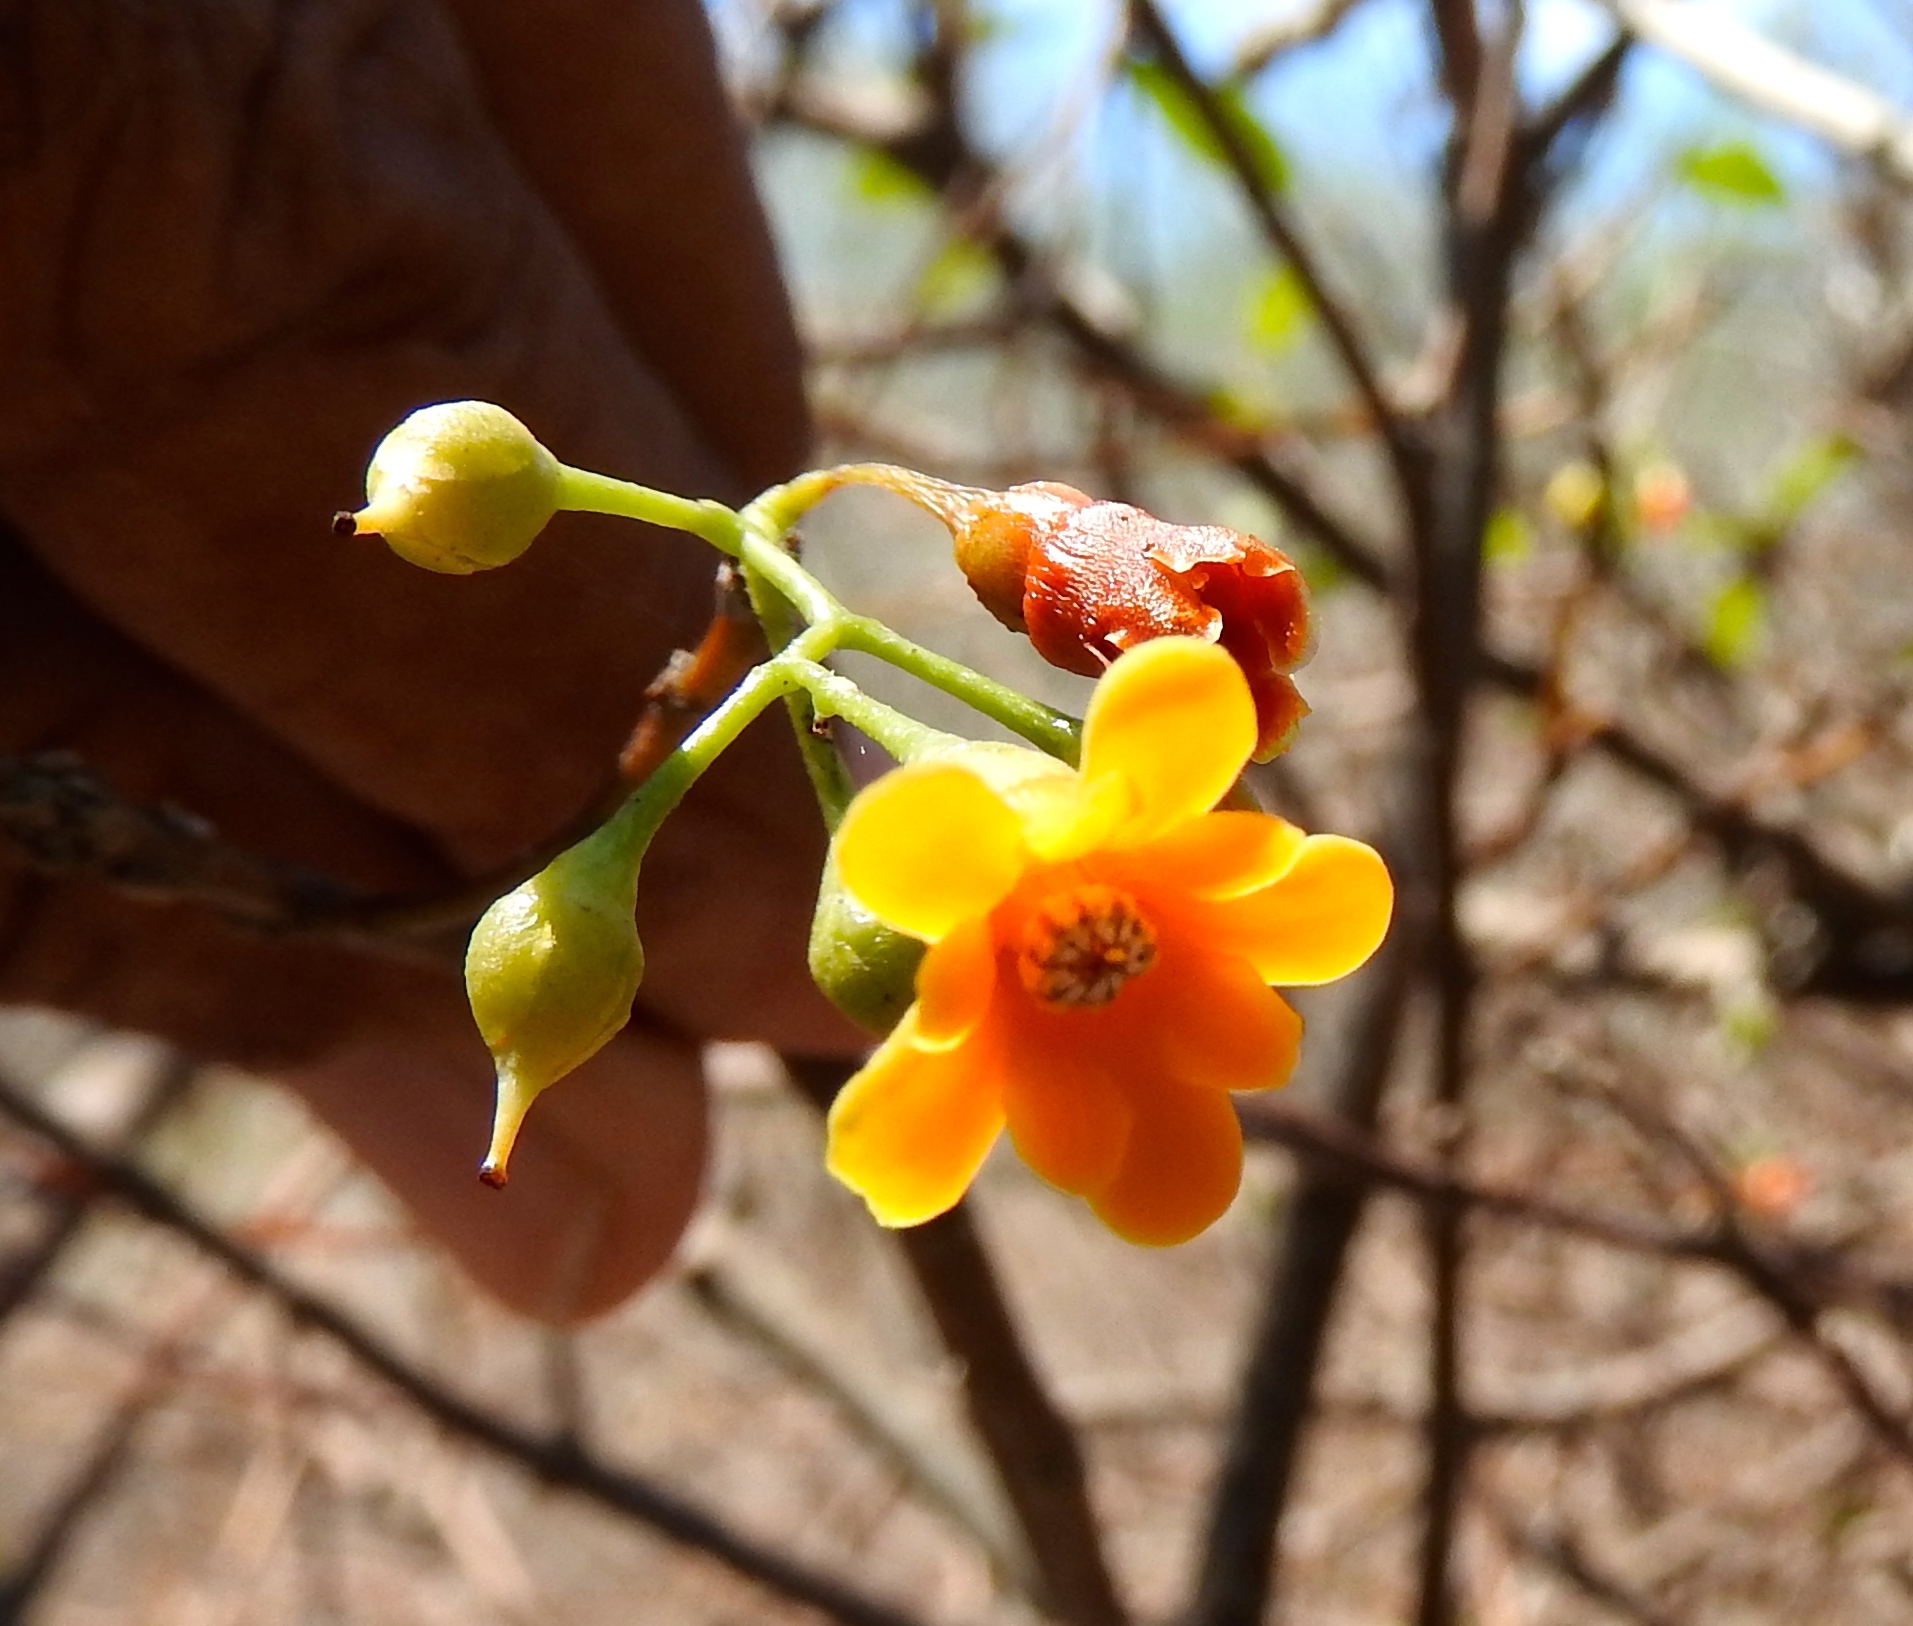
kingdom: Plantae
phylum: Tracheophyta
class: Magnoliopsida
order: Ericales
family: Primulaceae
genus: Bonellia
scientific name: Bonellia macrocarpa
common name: Primrose
